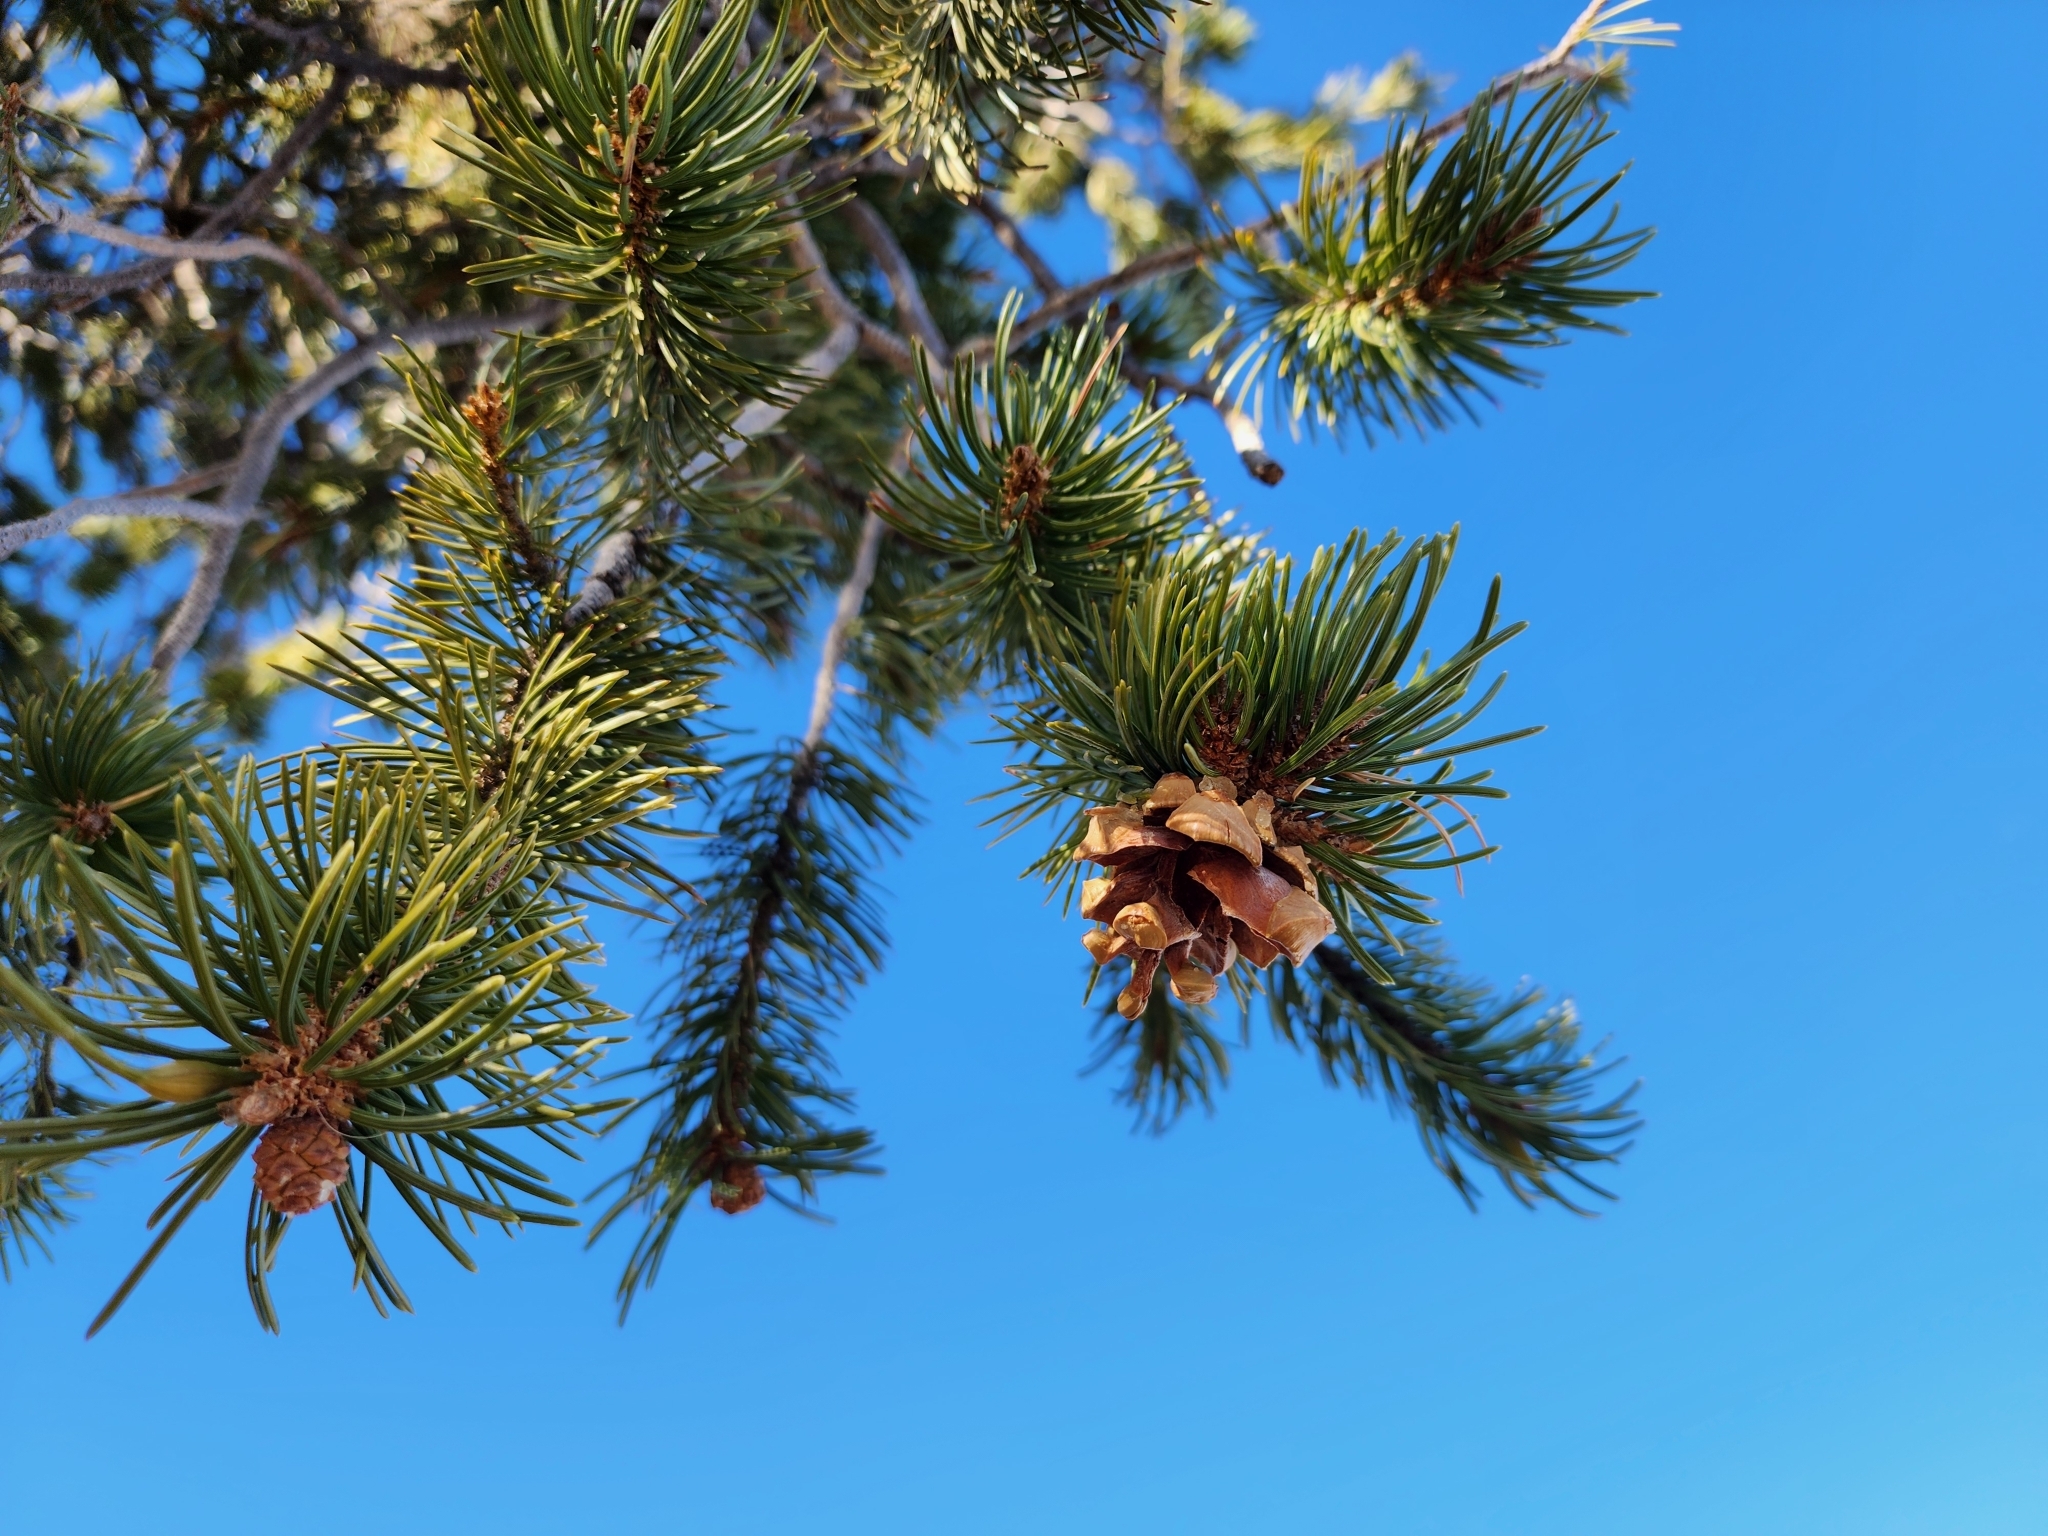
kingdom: Plantae
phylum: Tracheophyta
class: Pinopsida
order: Pinales
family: Pinaceae
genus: Pinus
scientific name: Pinus edulis
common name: Colorado pinyon
